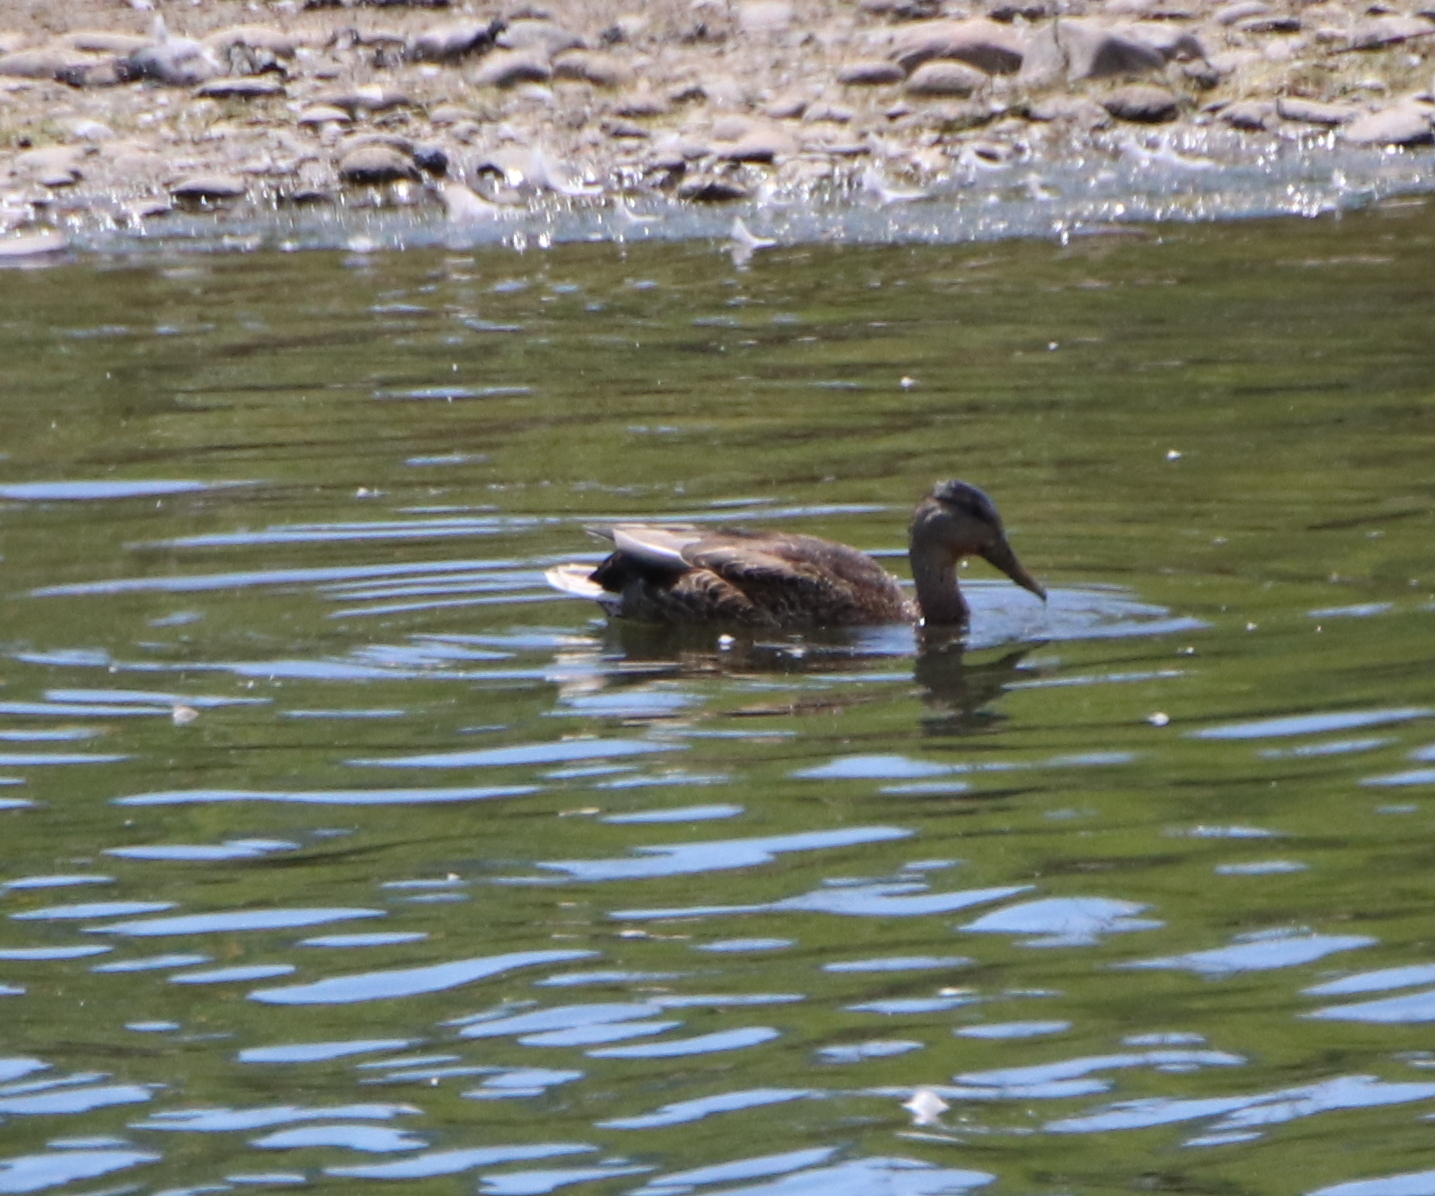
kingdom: Animalia
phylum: Chordata
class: Aves
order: Anseriformes
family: Anatidae
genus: Anas
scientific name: Anas platyrhynchos
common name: Mallard
